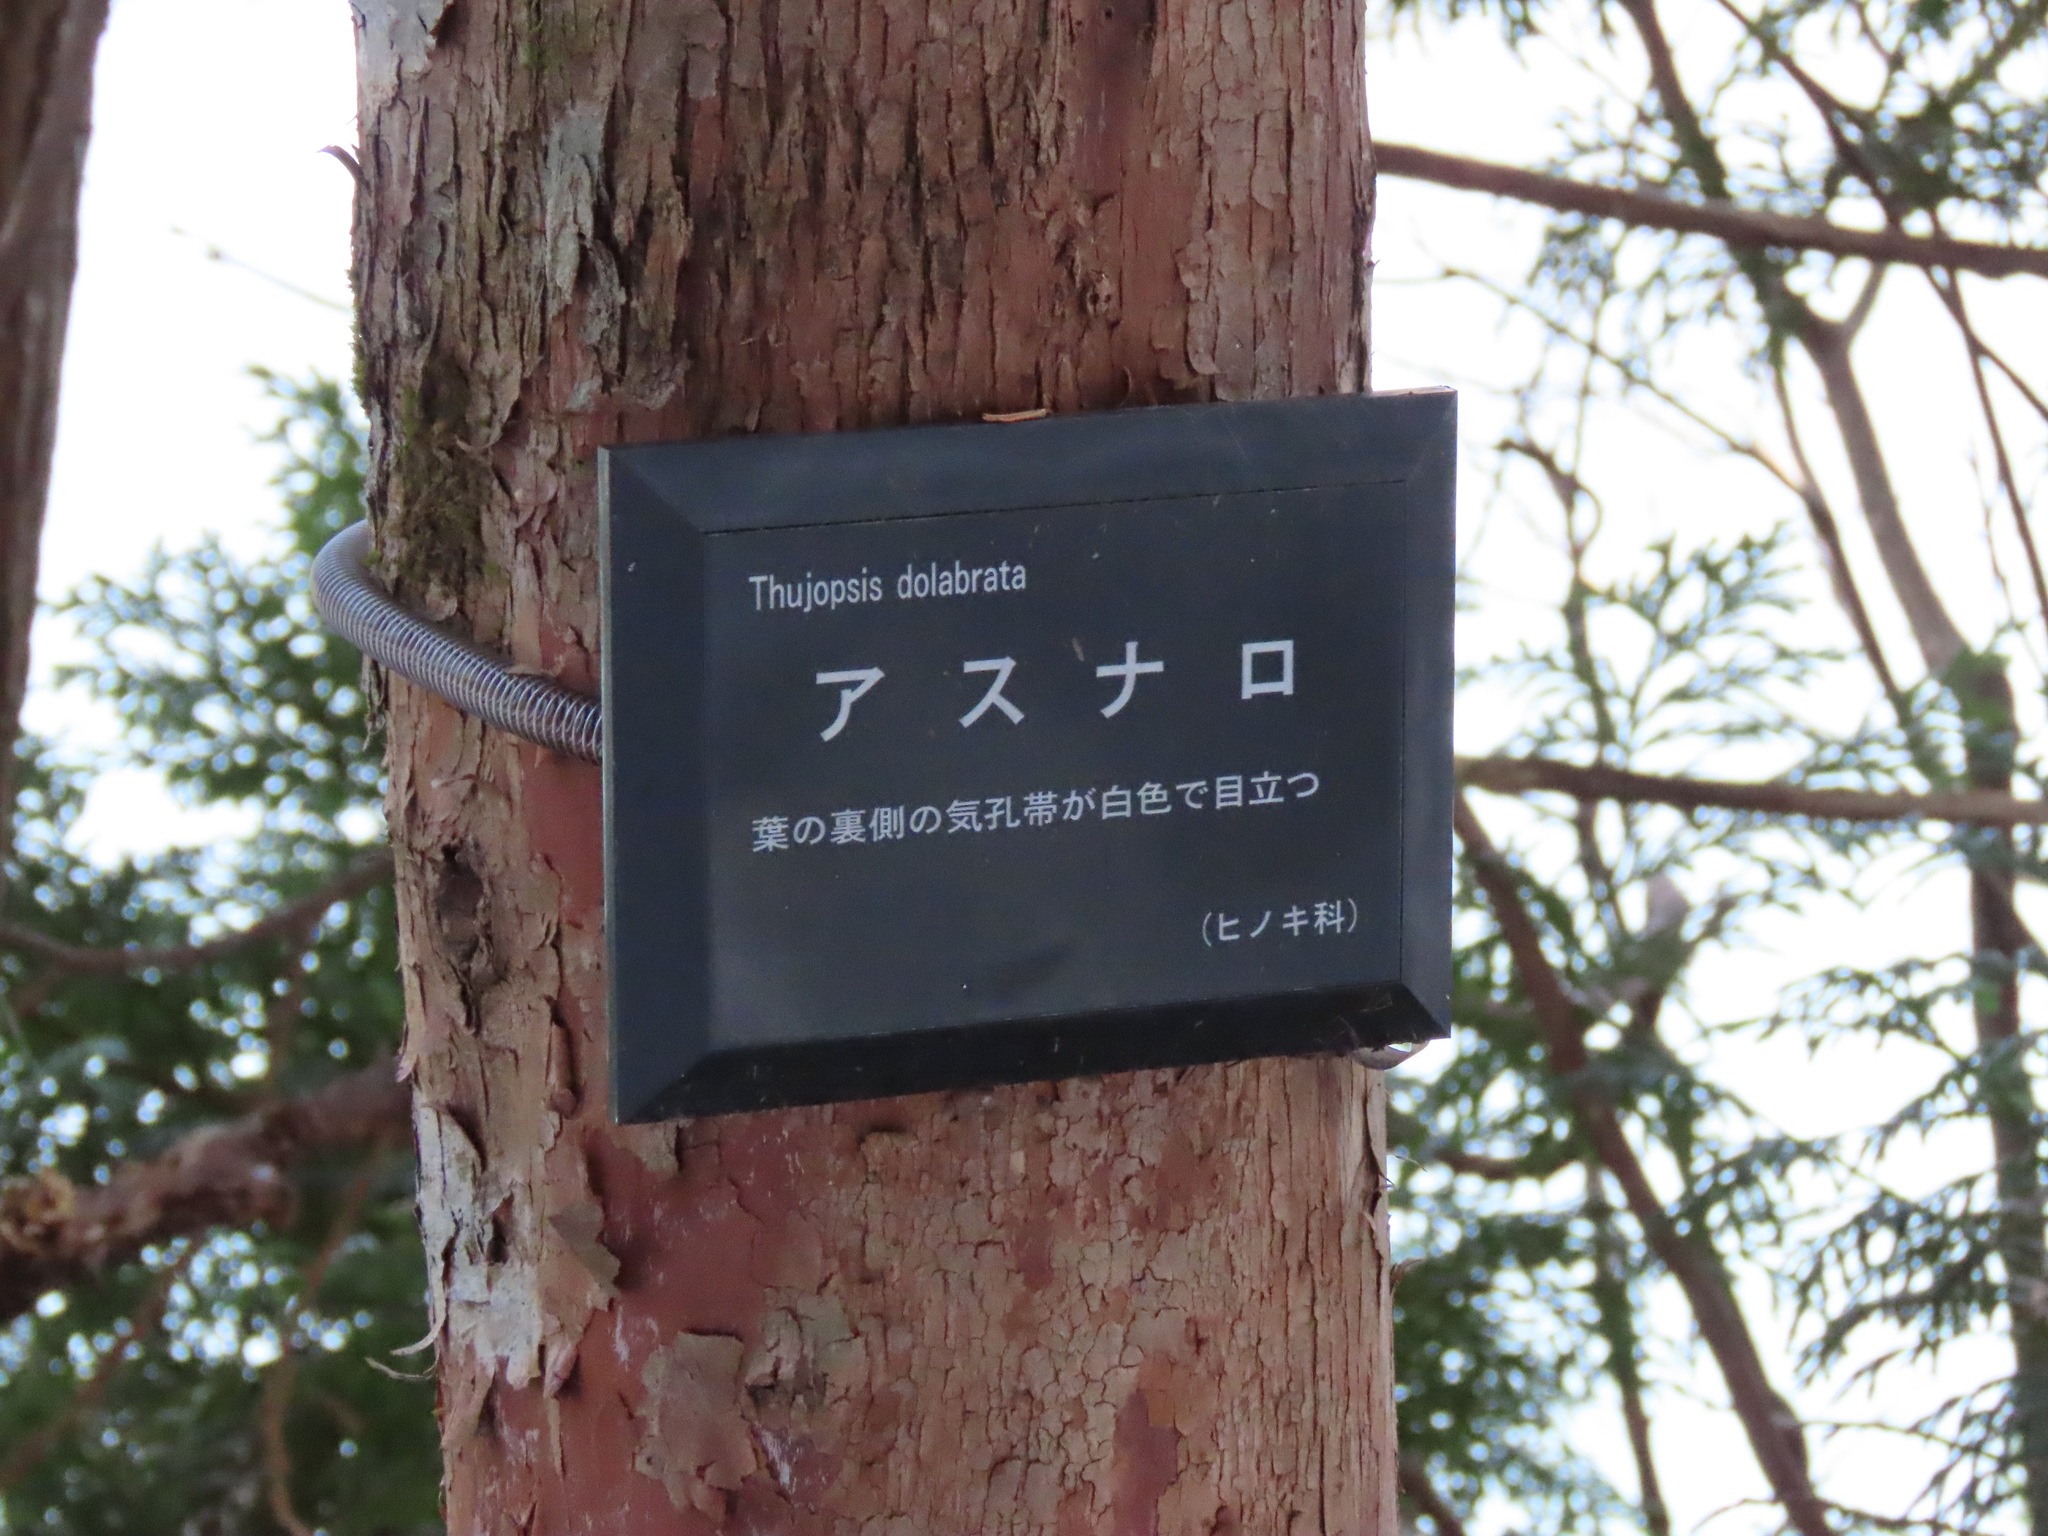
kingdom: Plantae
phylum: Tracheophyta
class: Pinopsida
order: Pinales
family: Cupressaceae
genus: Thujopsis
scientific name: Thujopsis dolabrata
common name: Hiba
